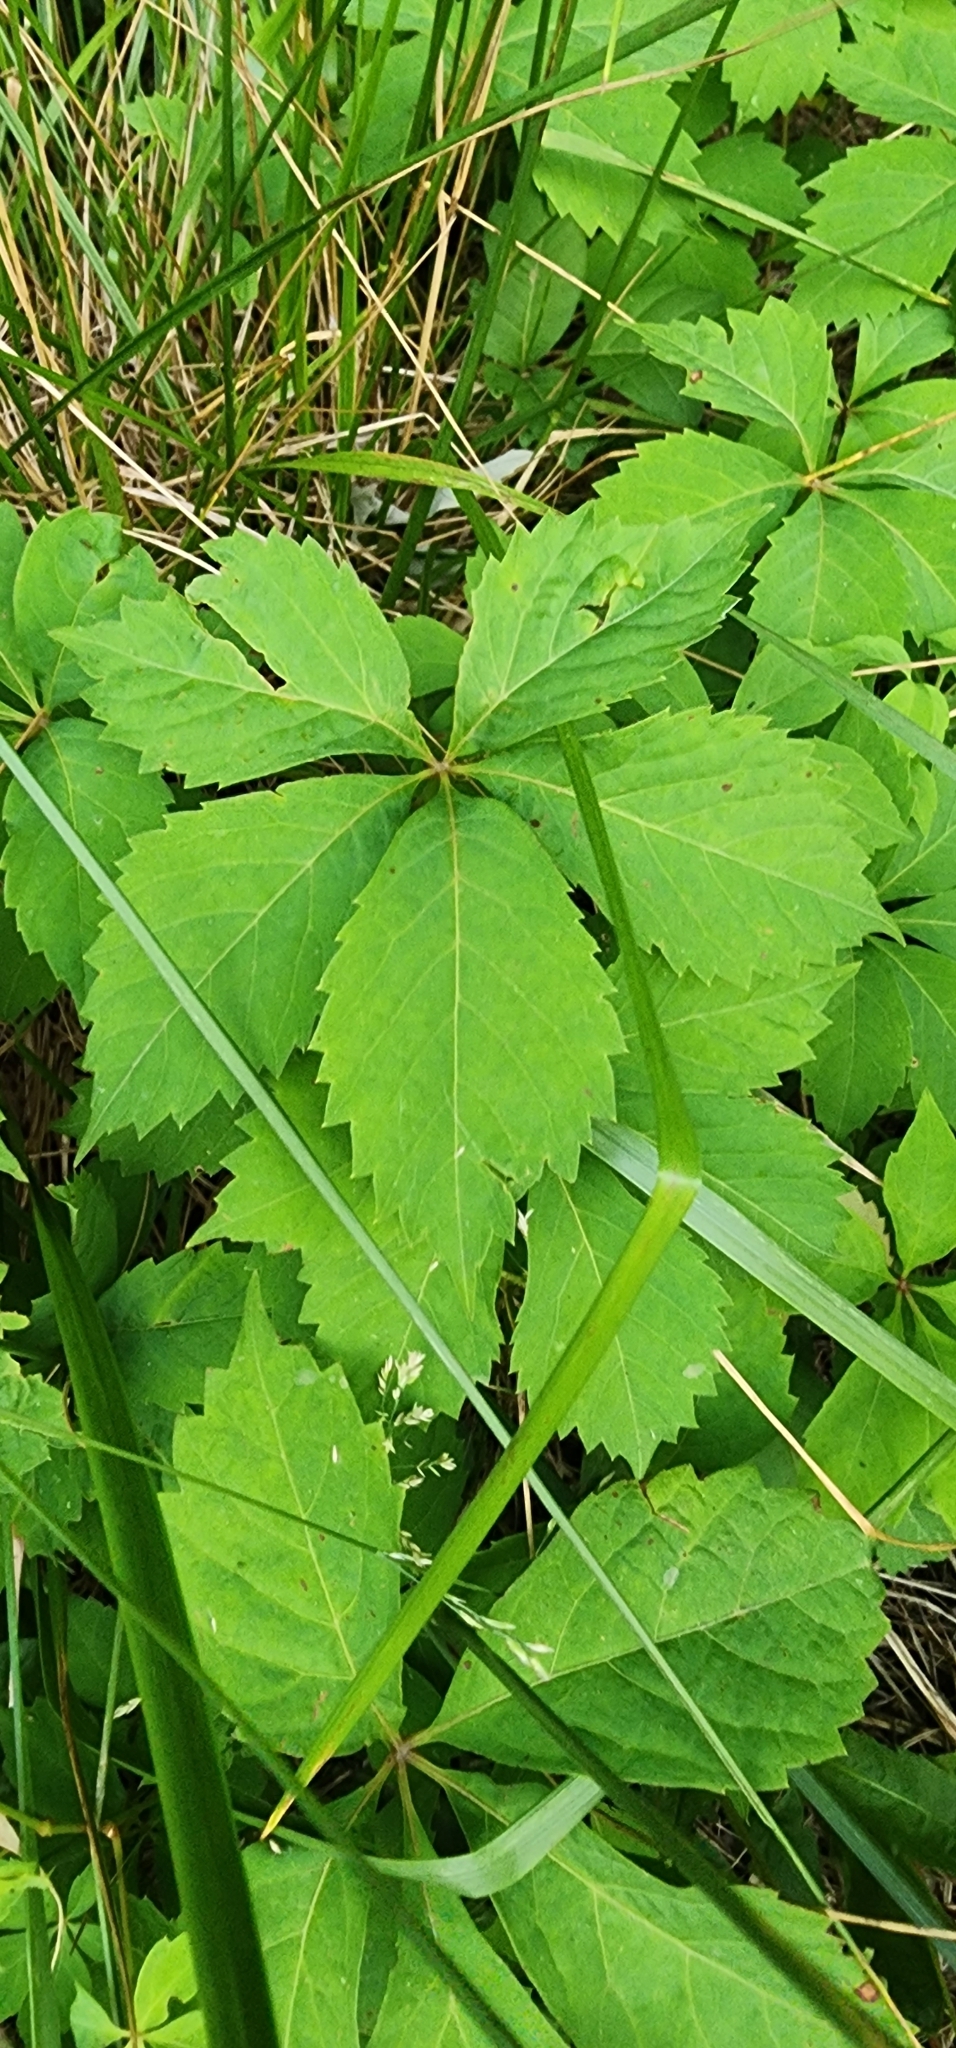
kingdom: Plantae
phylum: Tracheophyta
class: Magnoliopsida
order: Vitales
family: Vitaceae
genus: Parthenocissus
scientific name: Parthenocissus quinquefolia
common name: Virginia-creeper
